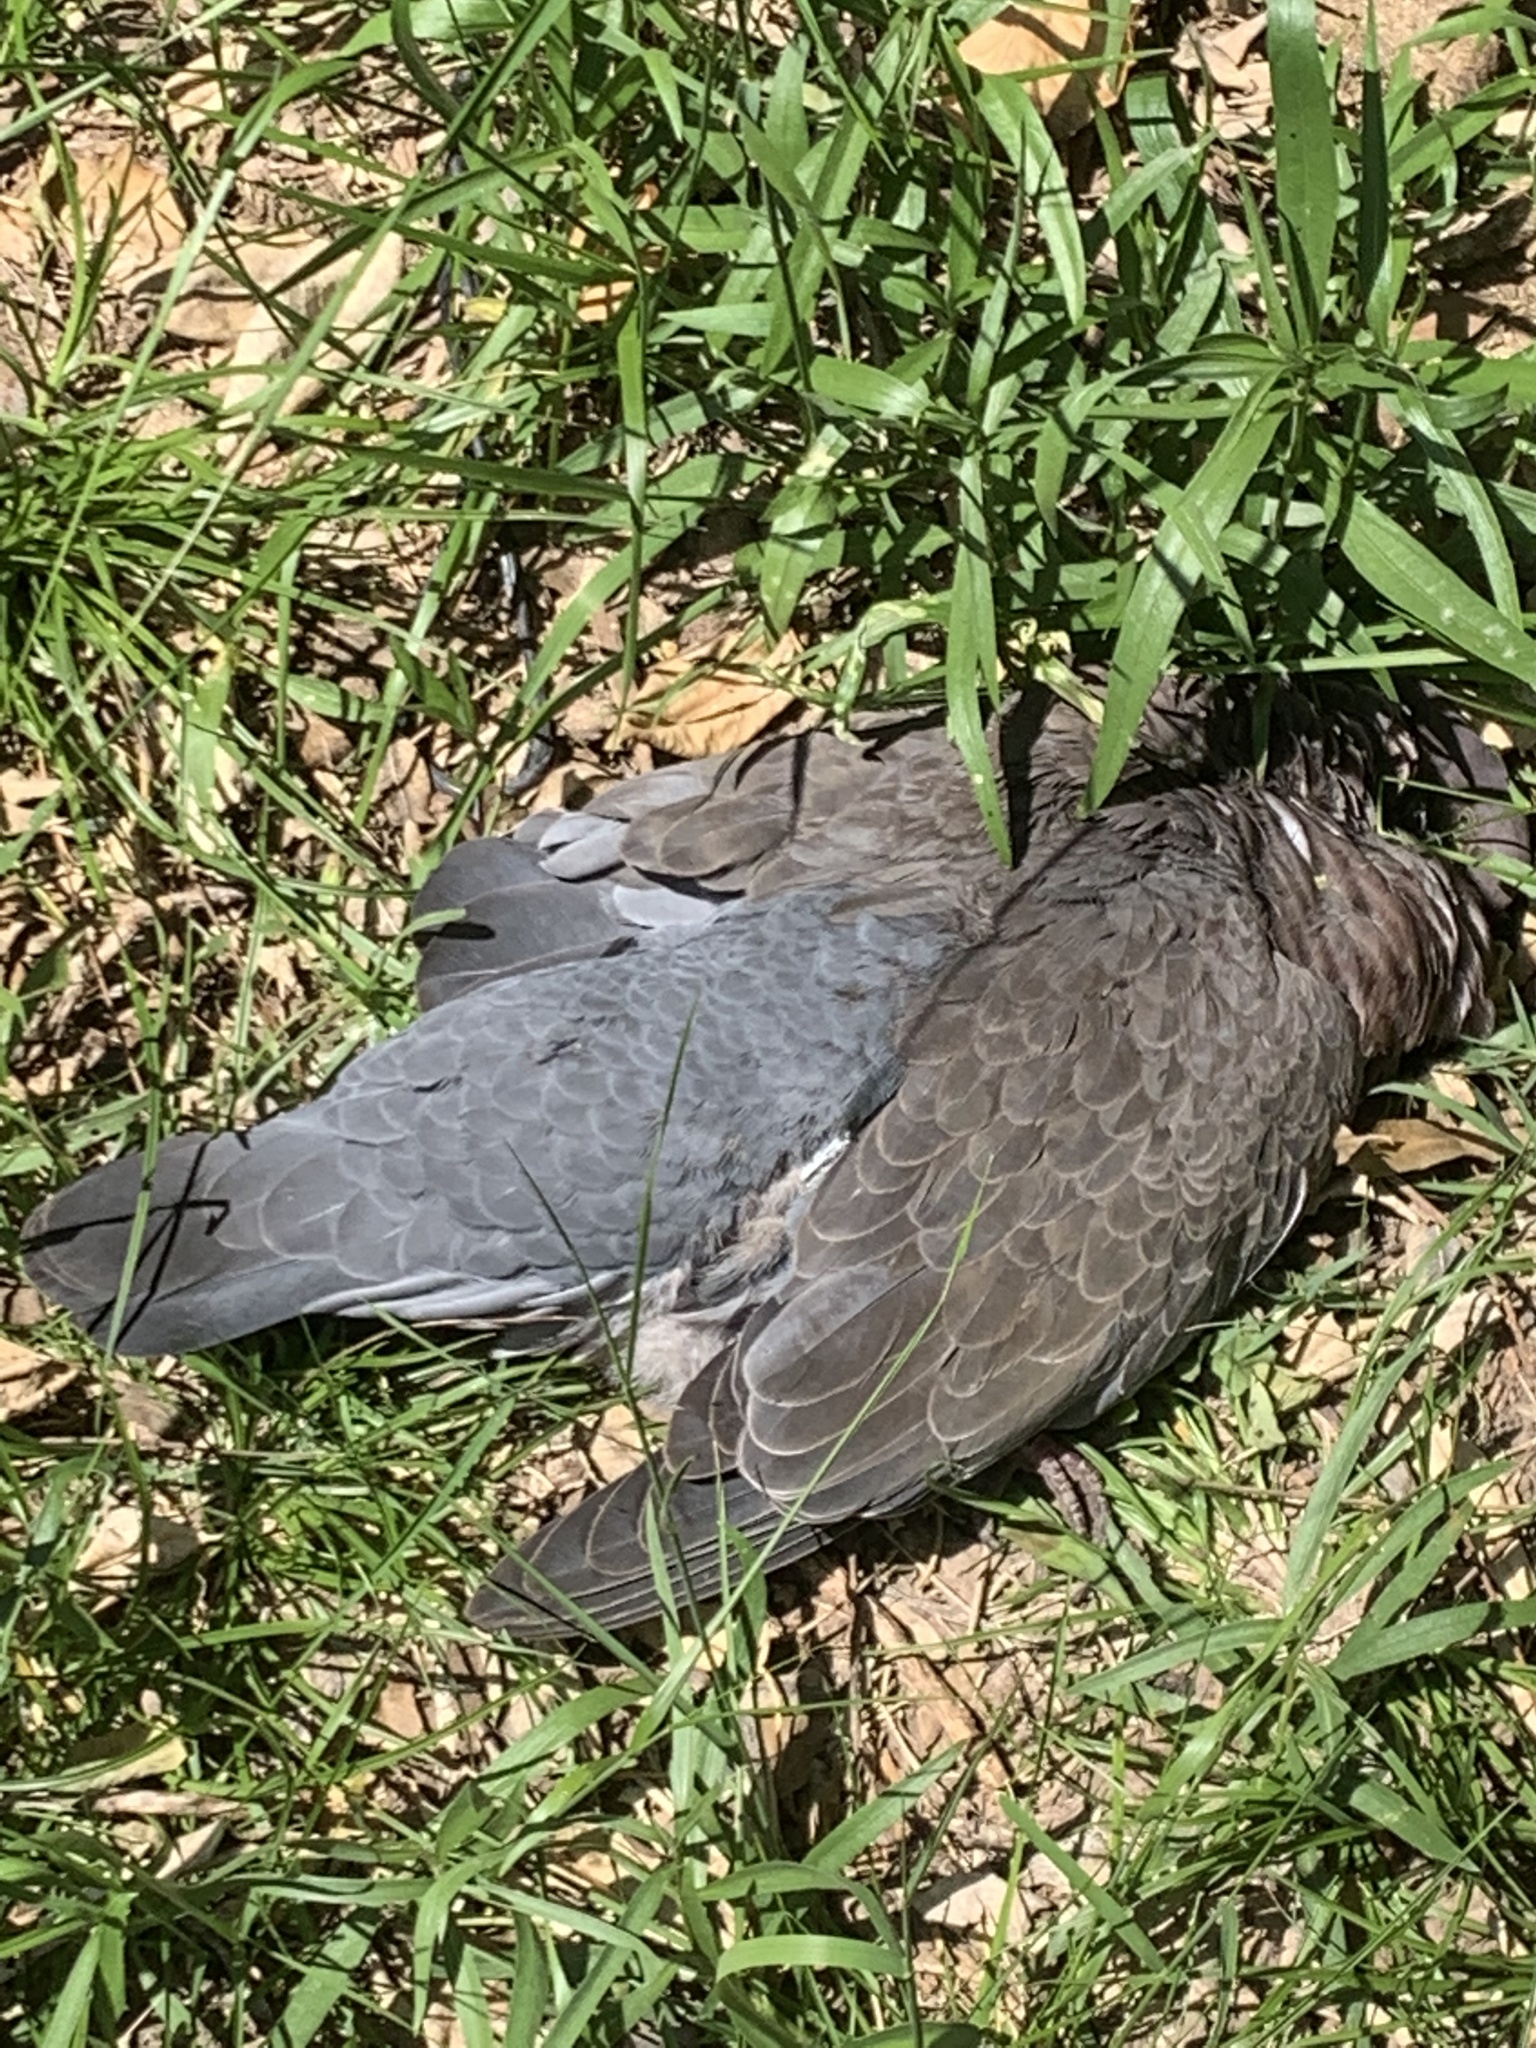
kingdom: Animalia
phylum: Chordata
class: Aves
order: Columbiformes
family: Columbidae
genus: Patagioenas
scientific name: Patagioenas picazuro
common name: Picazuro pigeon
